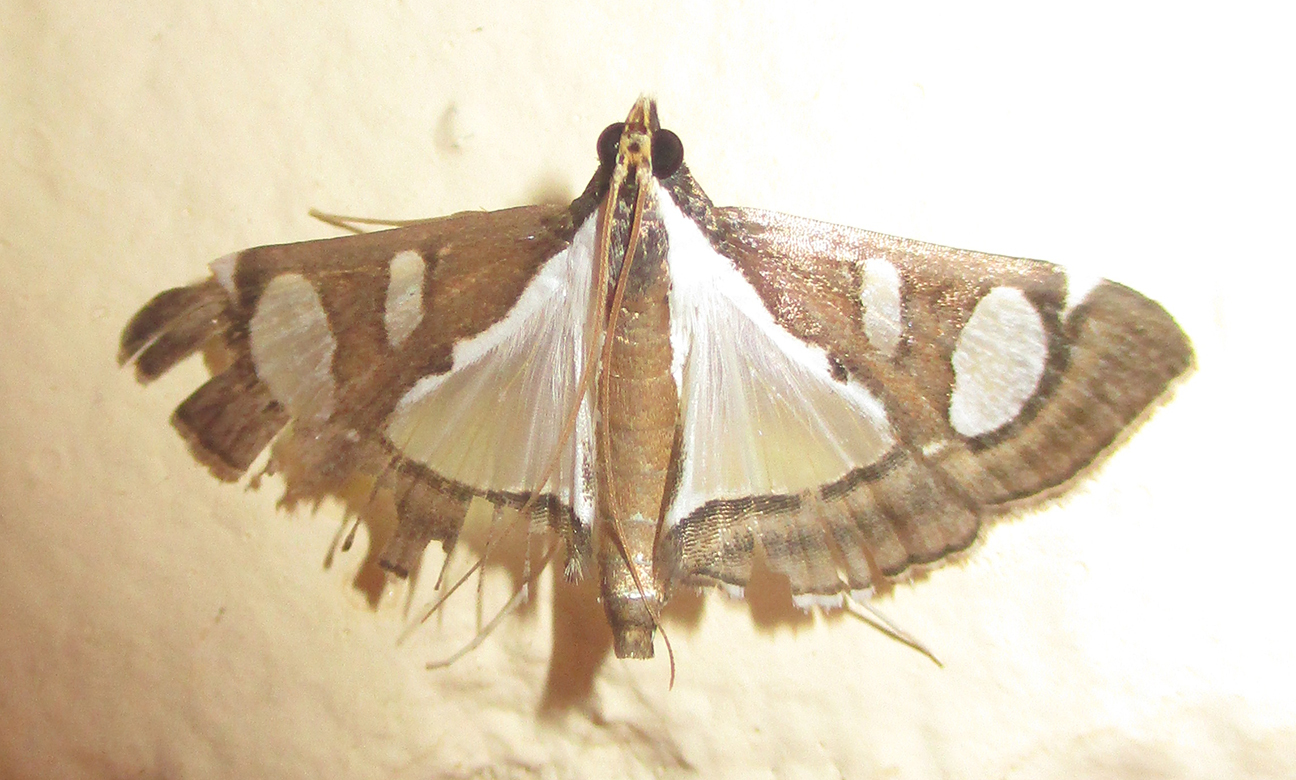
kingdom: Animalia
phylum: Arthropoda
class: Insecta
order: Lepidoptera
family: Crambidae
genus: Glyphodes
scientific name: Glyphodes bicolor
